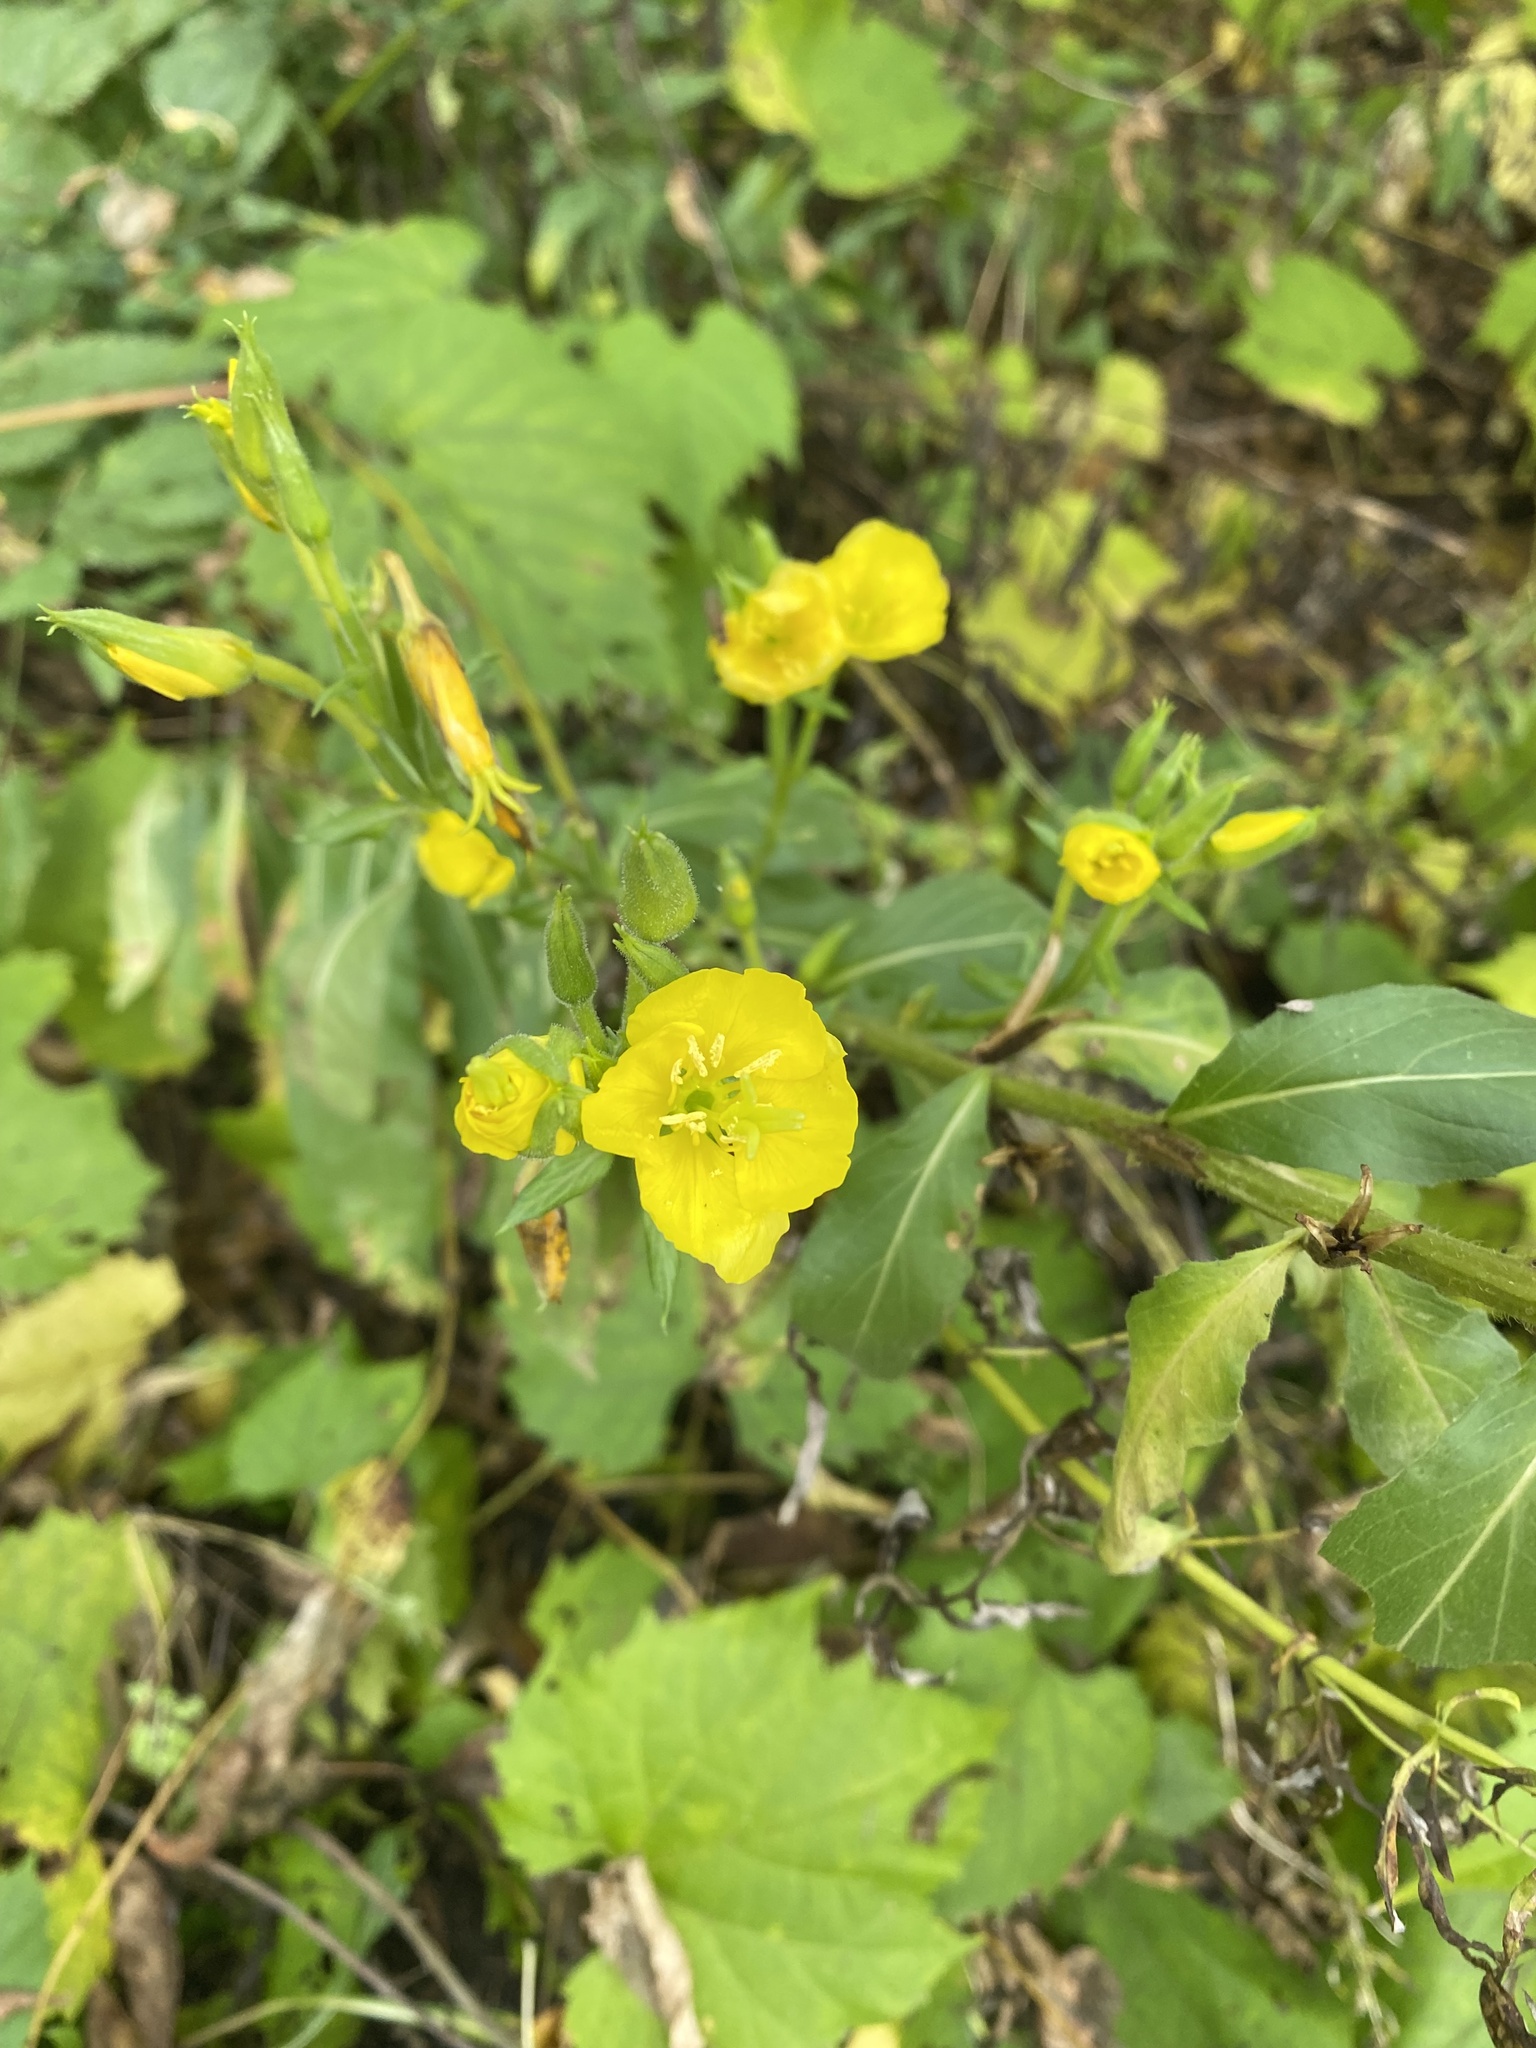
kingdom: Plantae
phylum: Tracheophyta
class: Magnoliopsida
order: Myrtales
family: Onagraceae
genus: Oenothera
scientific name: Oenothera biennis
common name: Common evening-primrose
